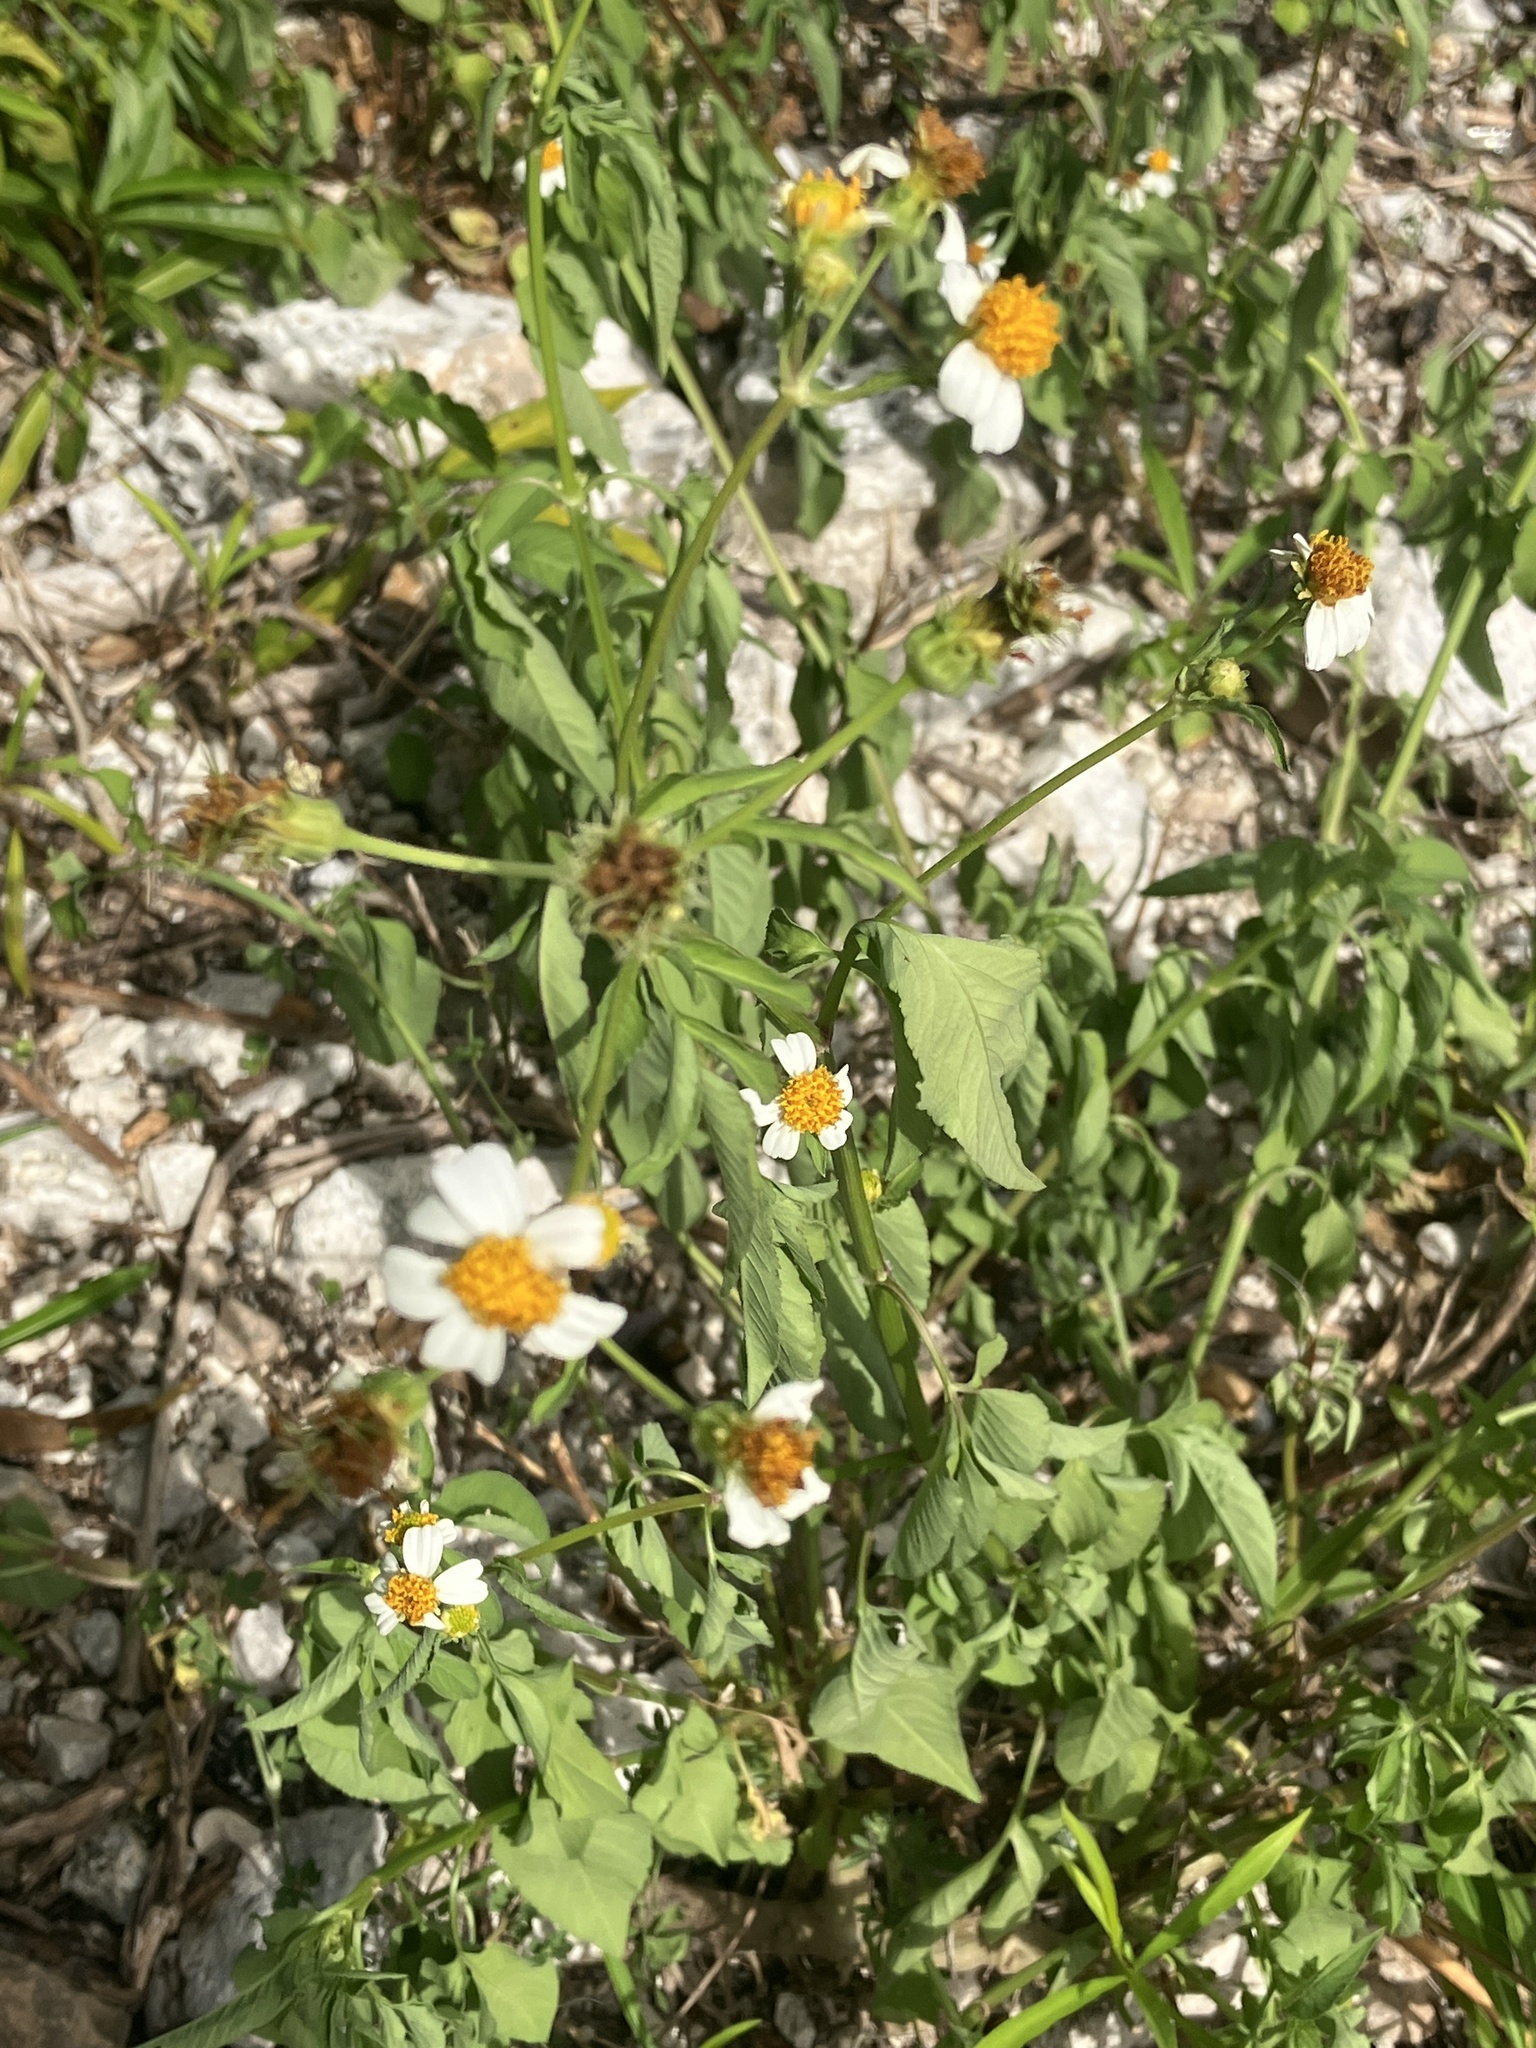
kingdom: Plantae
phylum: Tracheophyta
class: Magnoliopsida
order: Asterales
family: Asteraceae
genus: Bidens
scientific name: Bidens alba
